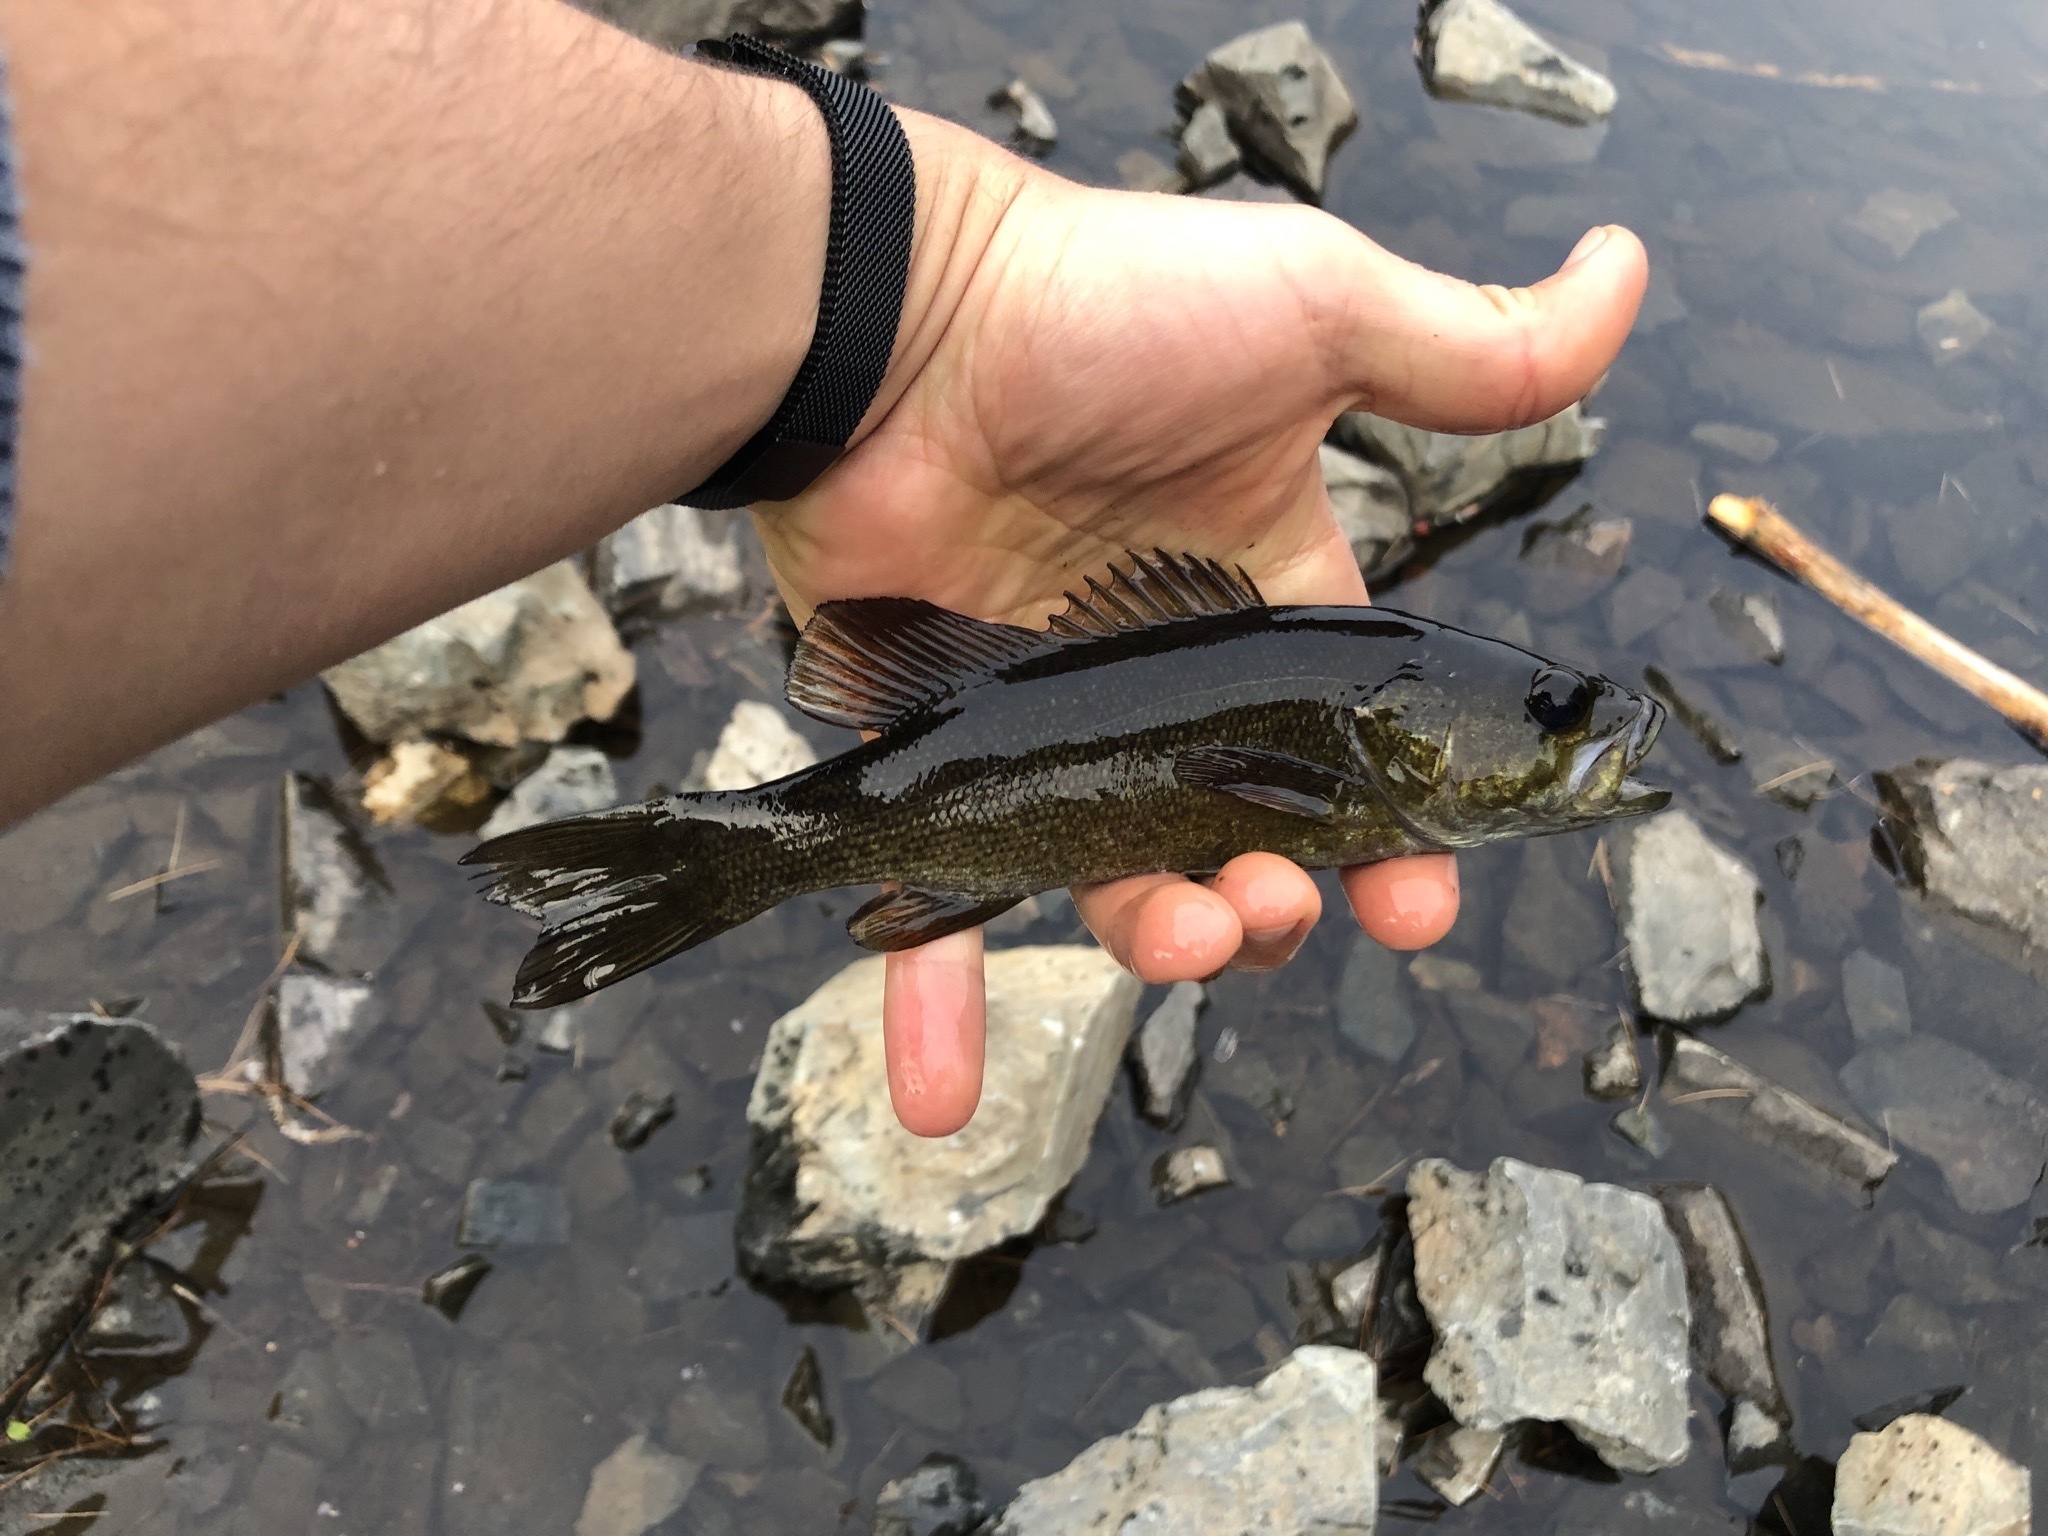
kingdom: Animalia
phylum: Chordata
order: Perciformes
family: Centrarchidae
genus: Micropterus
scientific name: Micropterus dolomieu
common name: Smallmouth bass
